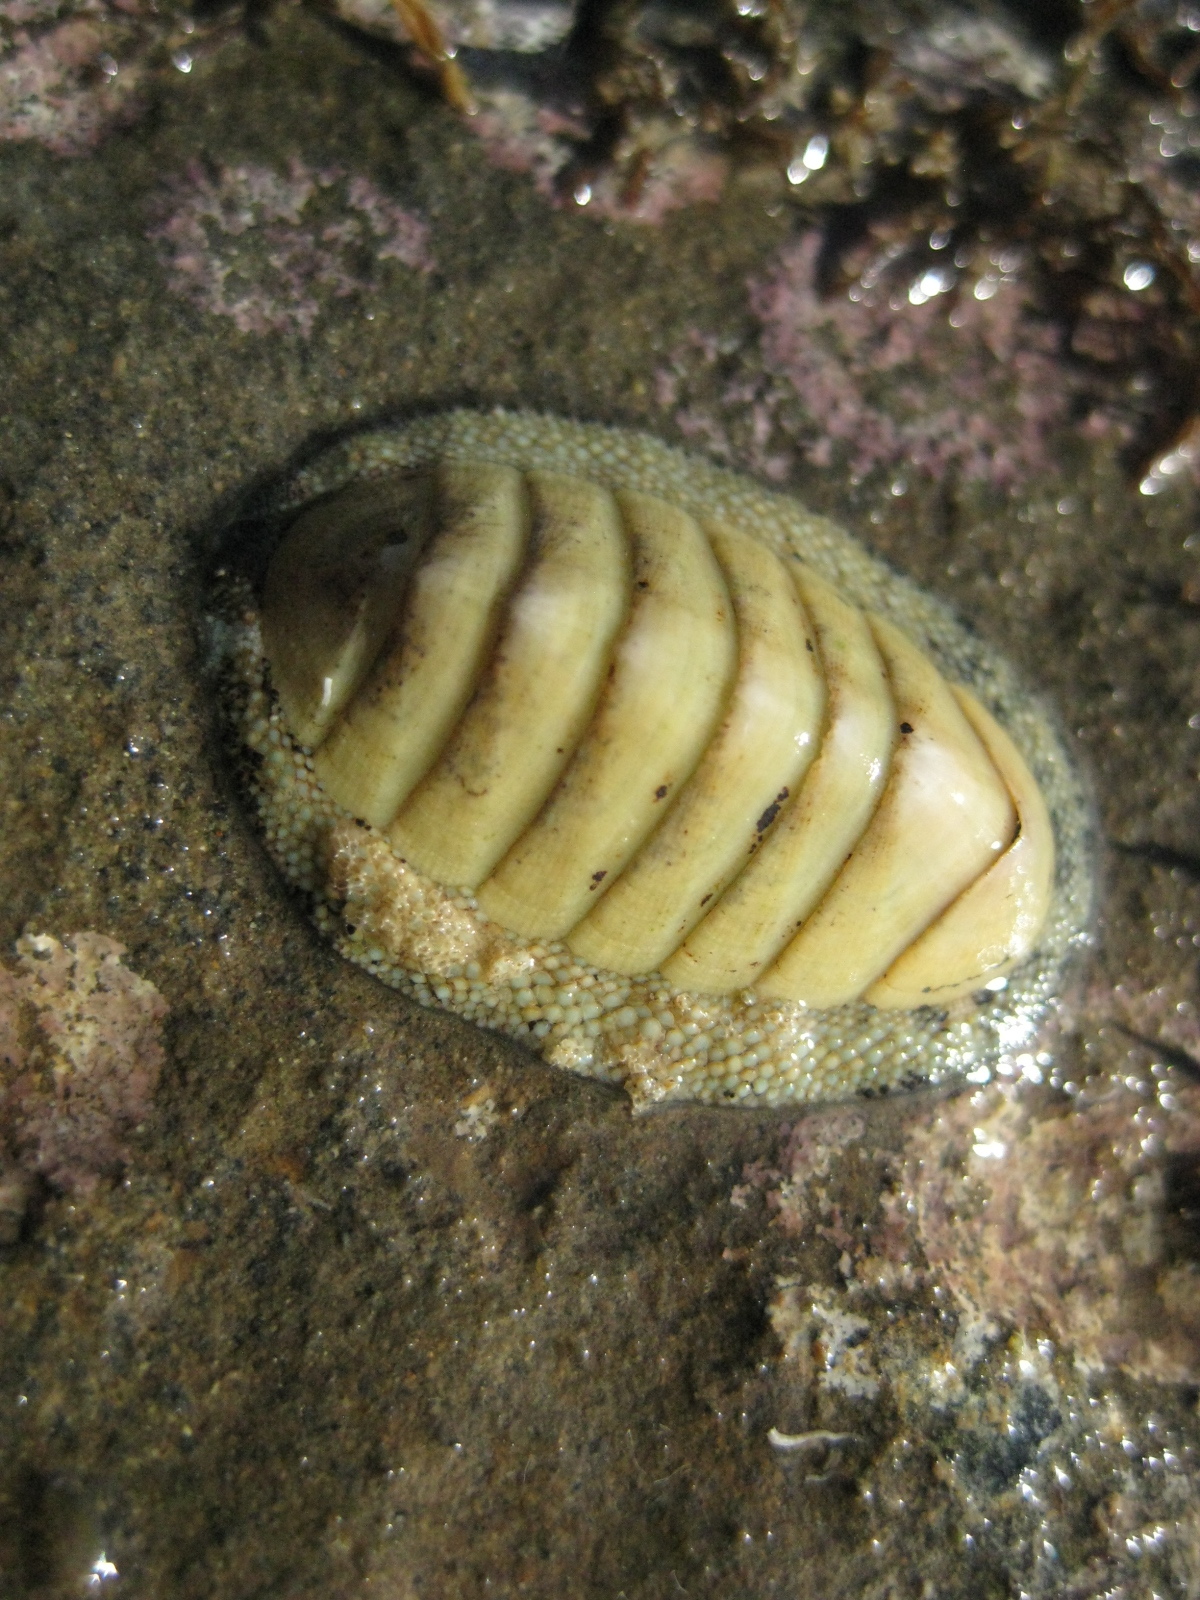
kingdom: Animalia
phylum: Mollusca
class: Polyplacophora
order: Chitonida
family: Chitonidae
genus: Chiton
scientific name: Chiton glaucus
